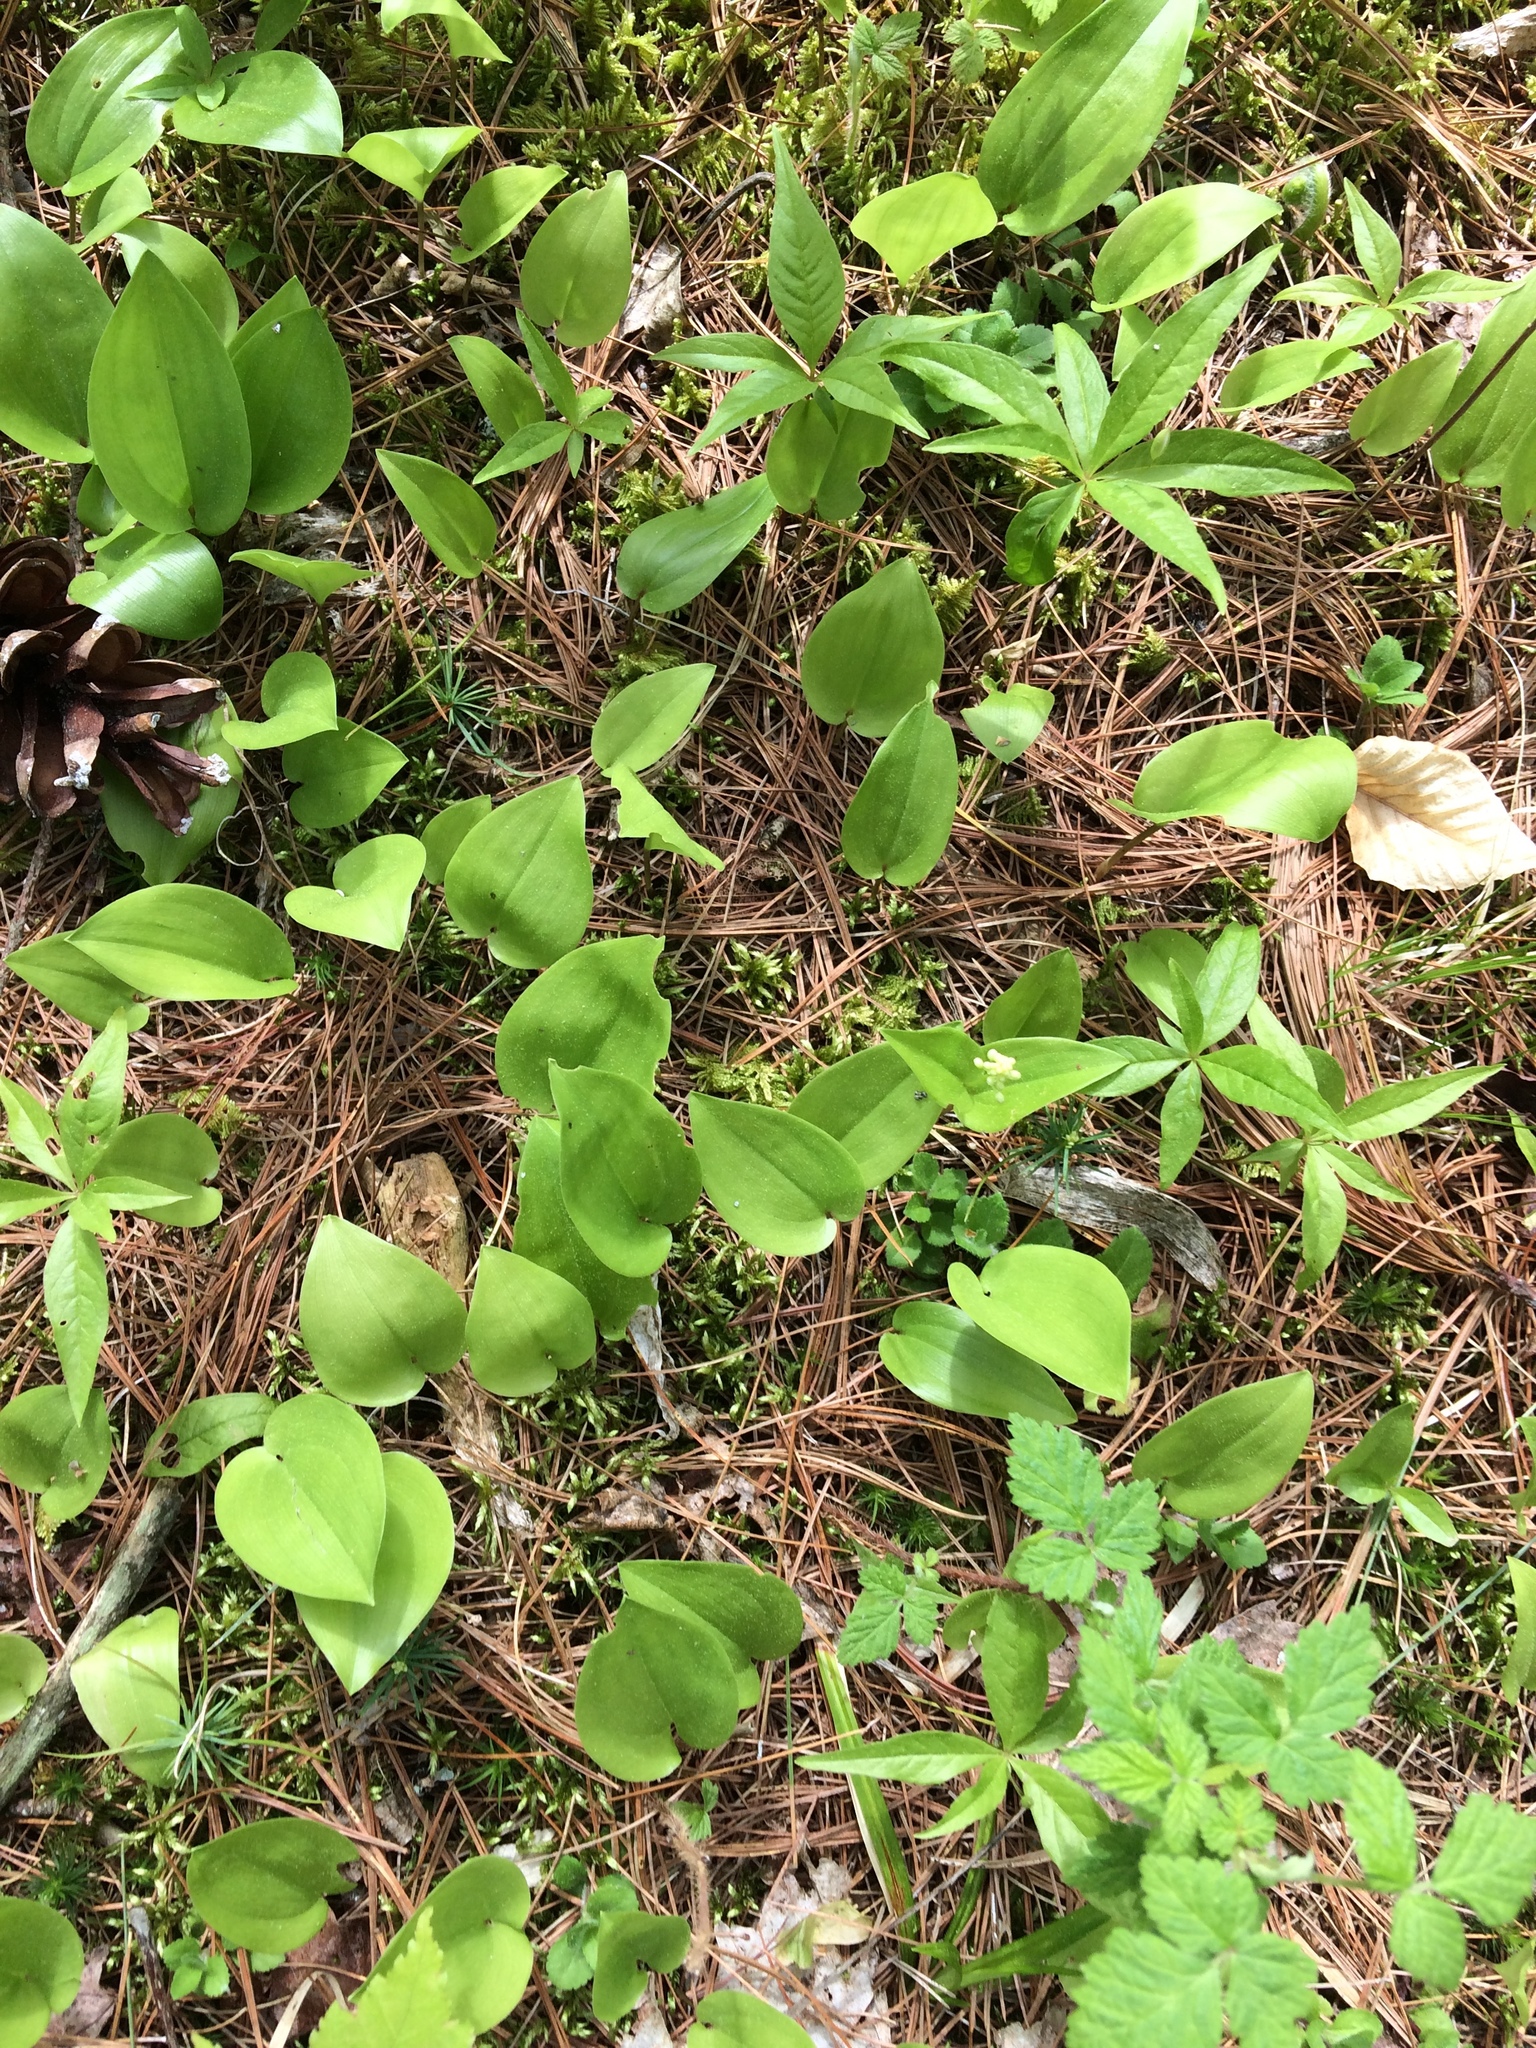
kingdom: Plantae
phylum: Tracheophyta
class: Liliopsida
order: Asparagales
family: Asparagaceae
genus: Maianthemum
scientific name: Maianthemum canadense
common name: False lily-of-the-valley
